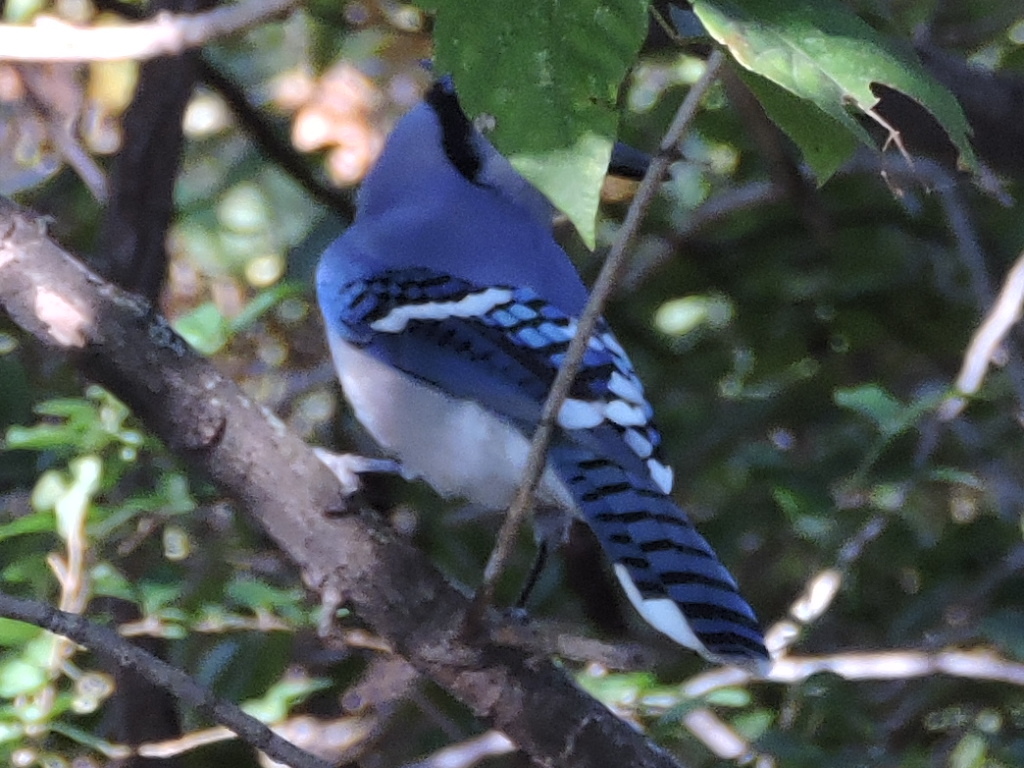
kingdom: Animalia
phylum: Chordata
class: Aves
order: Passeriformes
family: Corvidae
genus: Cyanocitta
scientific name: Cyanocitta cristata
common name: Blue jay
